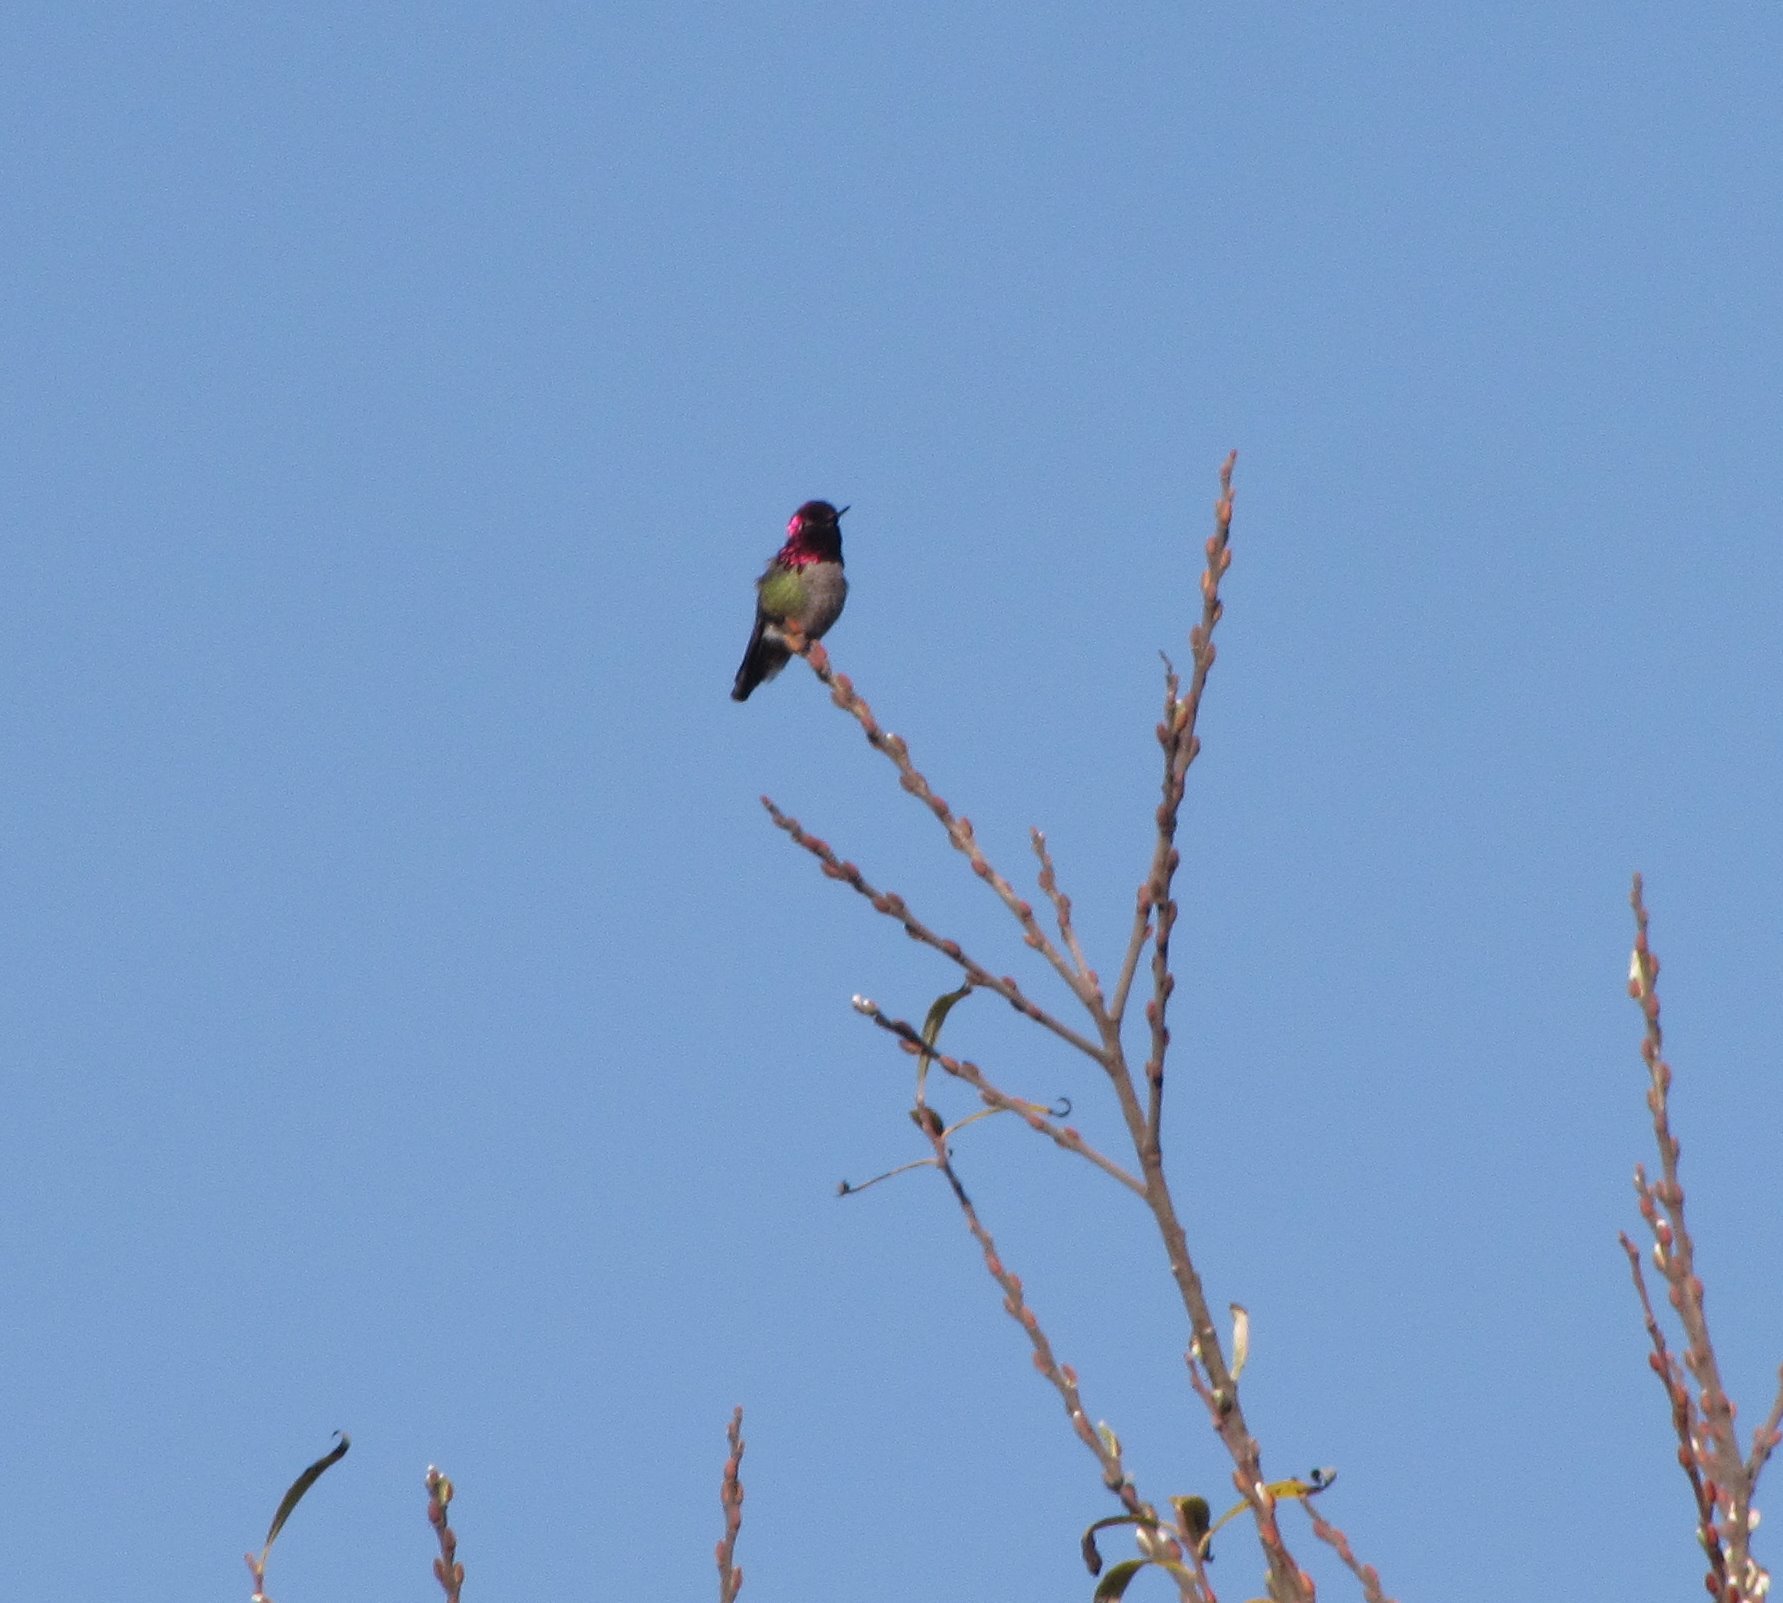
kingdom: Animalia
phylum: Chordata
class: Aves
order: Apodiformes
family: Trochilidae
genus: Calypte
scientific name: Calypte anna
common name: Anna's hummingbird
